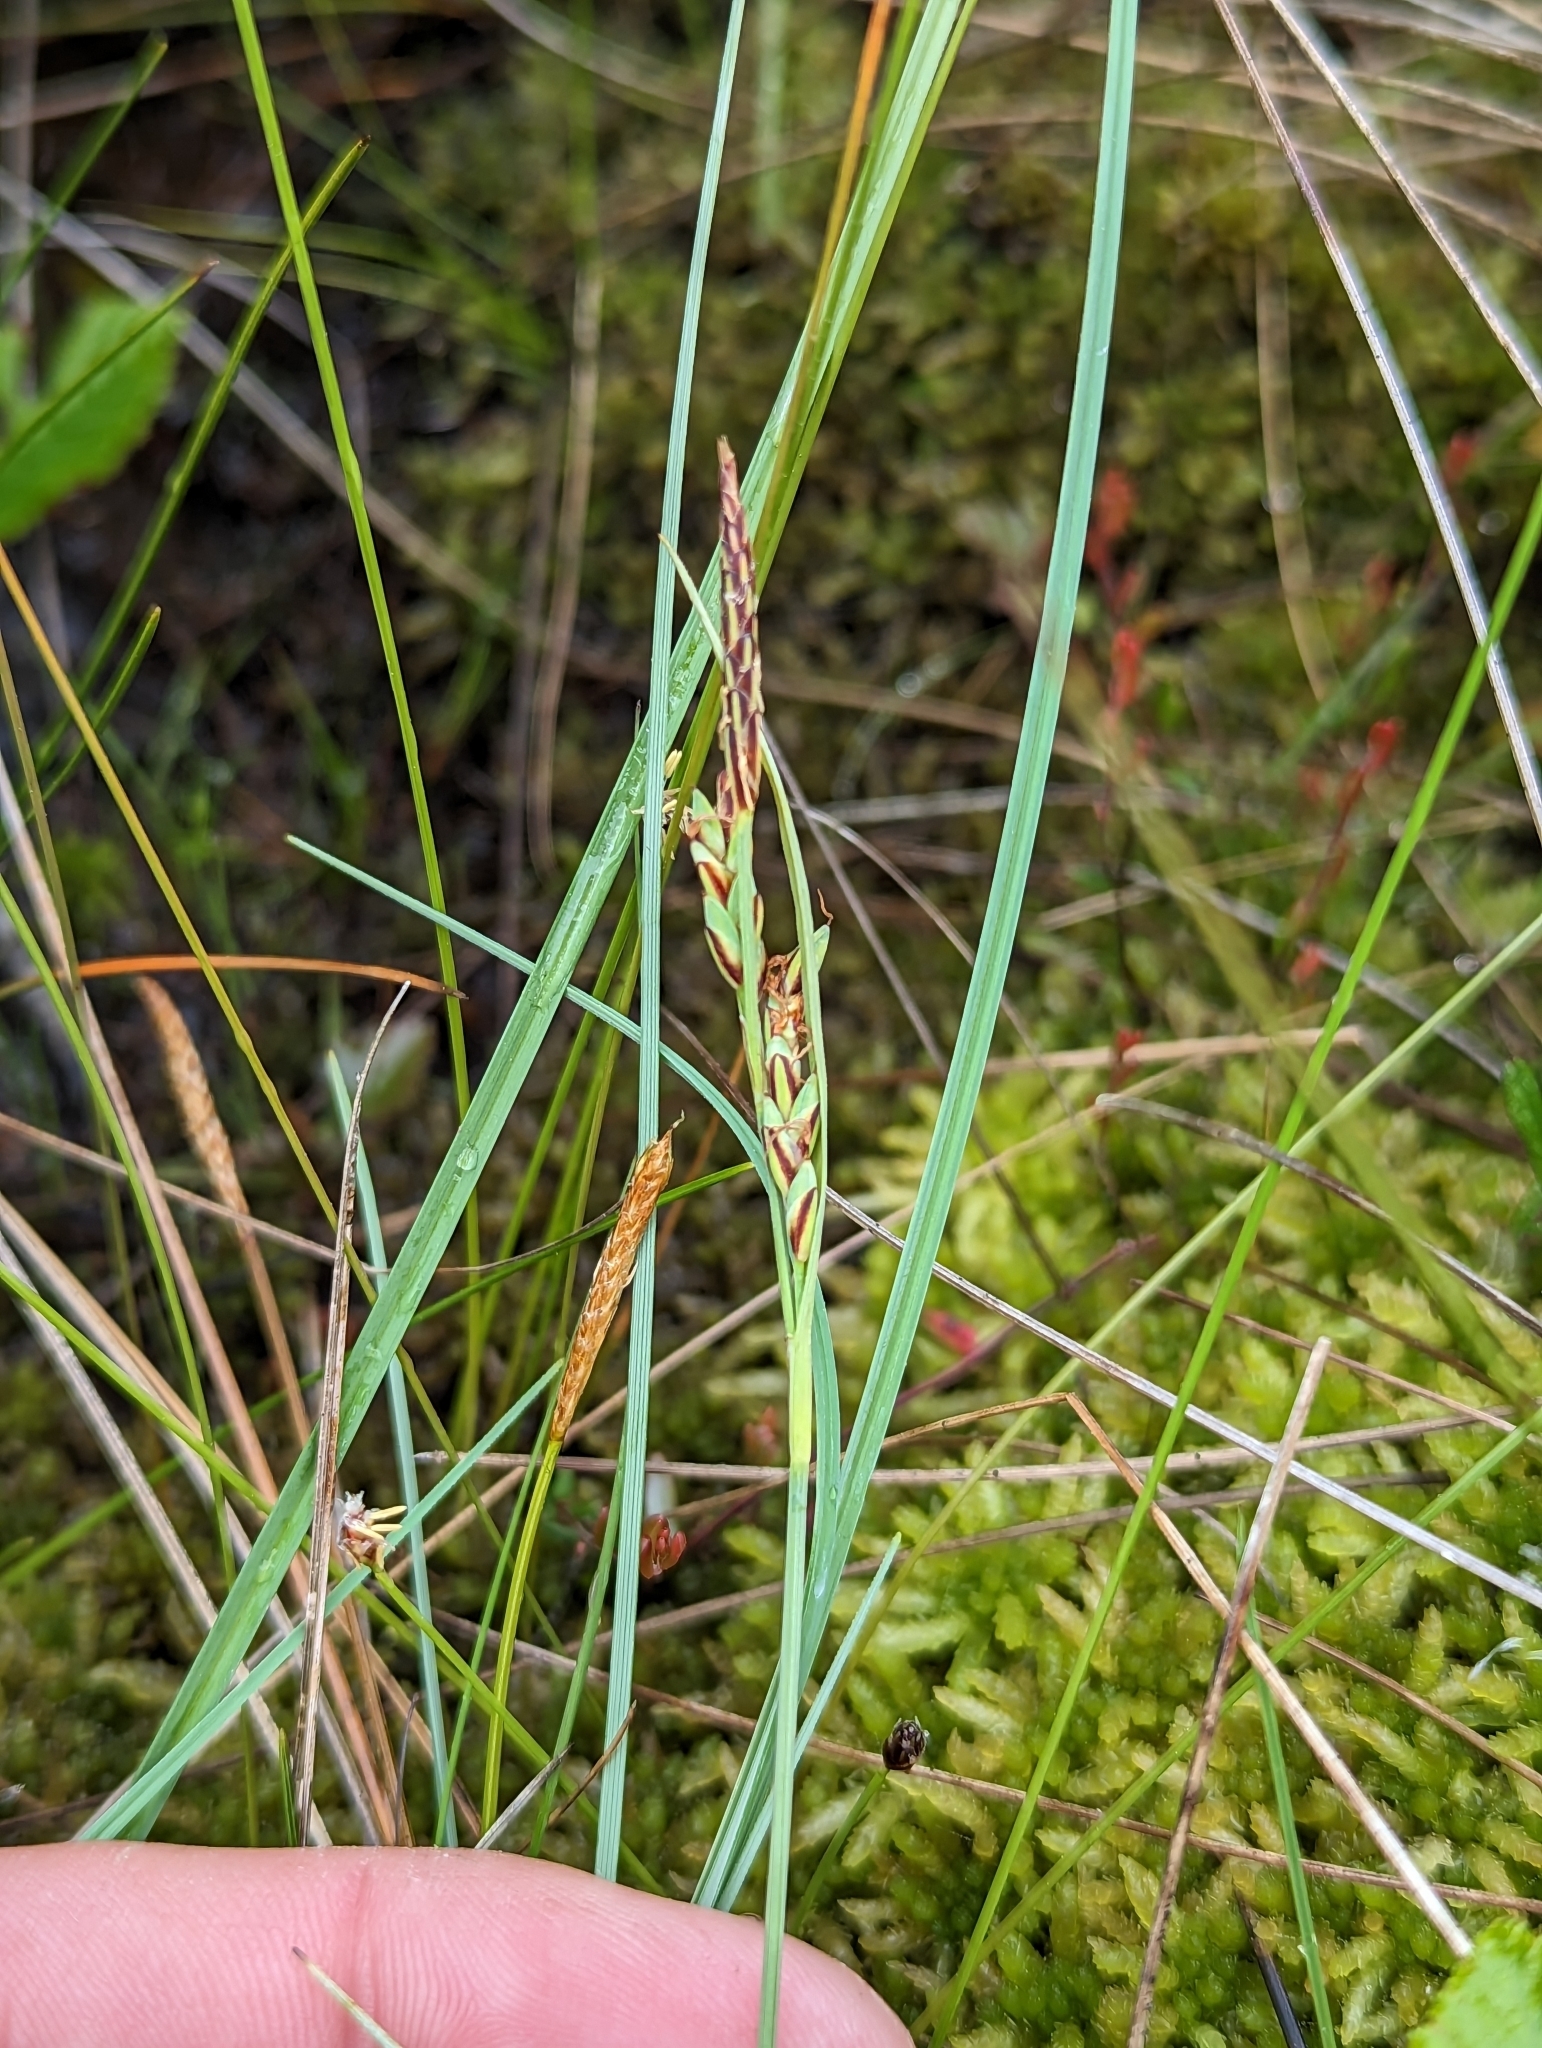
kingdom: Plantae
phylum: Tracheophyta
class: Liliopsida
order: Poales
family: Cyperaceae
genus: Carex
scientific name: Carex livida
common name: Livid sedge
